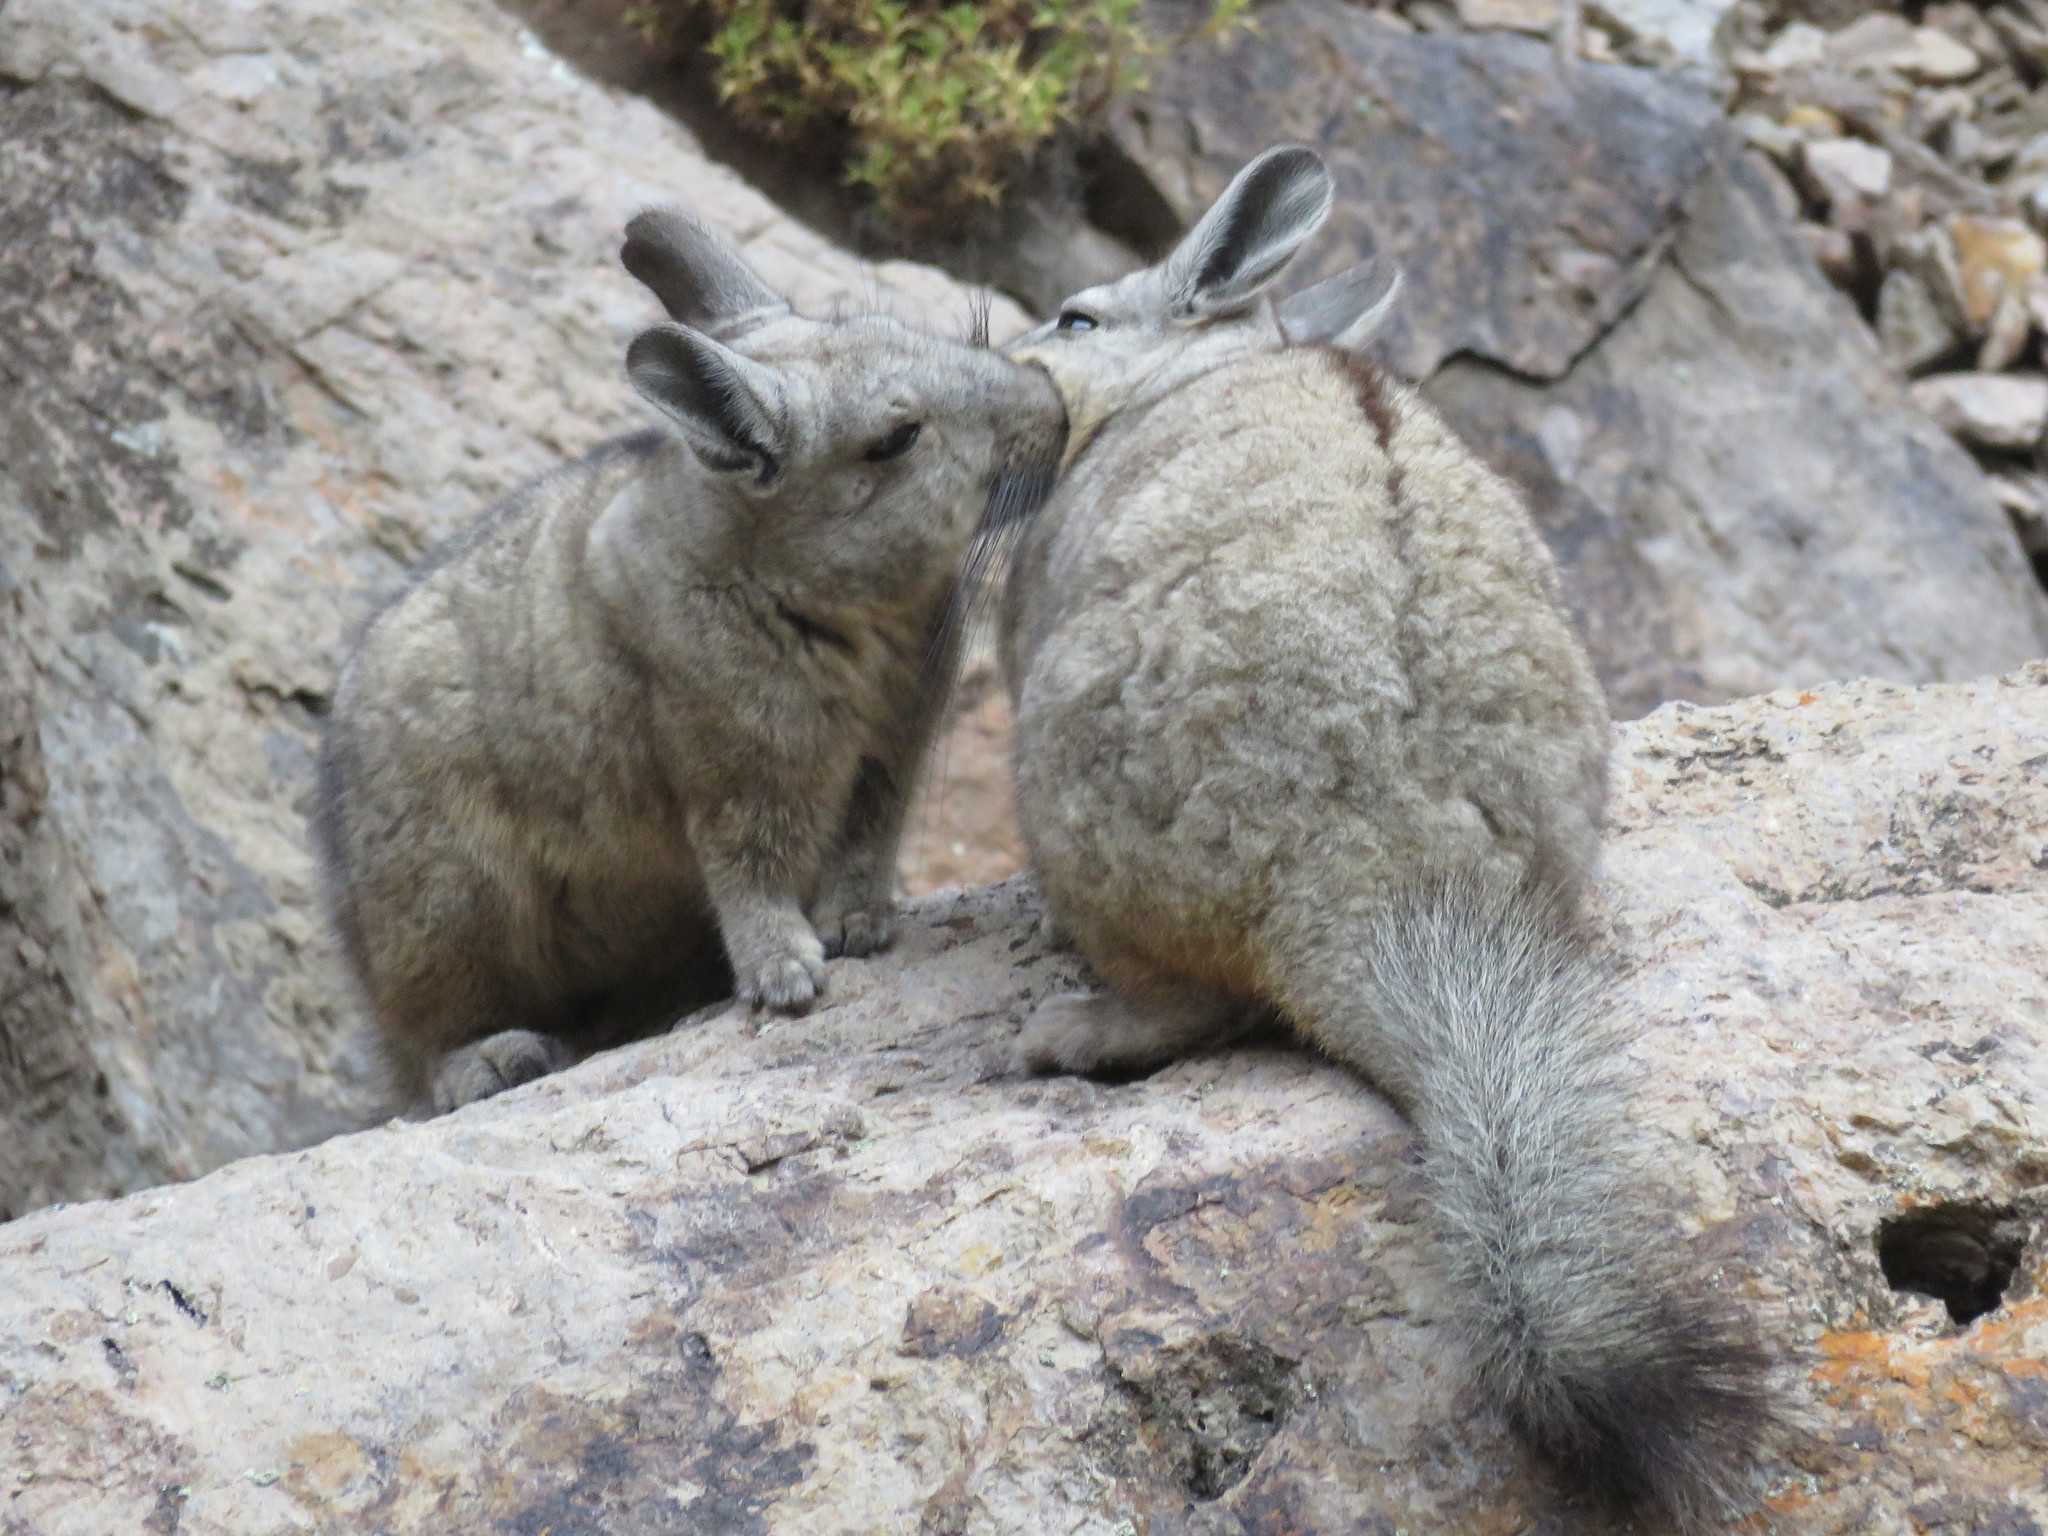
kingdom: Animalia
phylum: Chordata
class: Mammalia
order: Rodentia
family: Chinchillidae
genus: Lagidium
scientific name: Lagidium viscacia
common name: Southern viscacha
